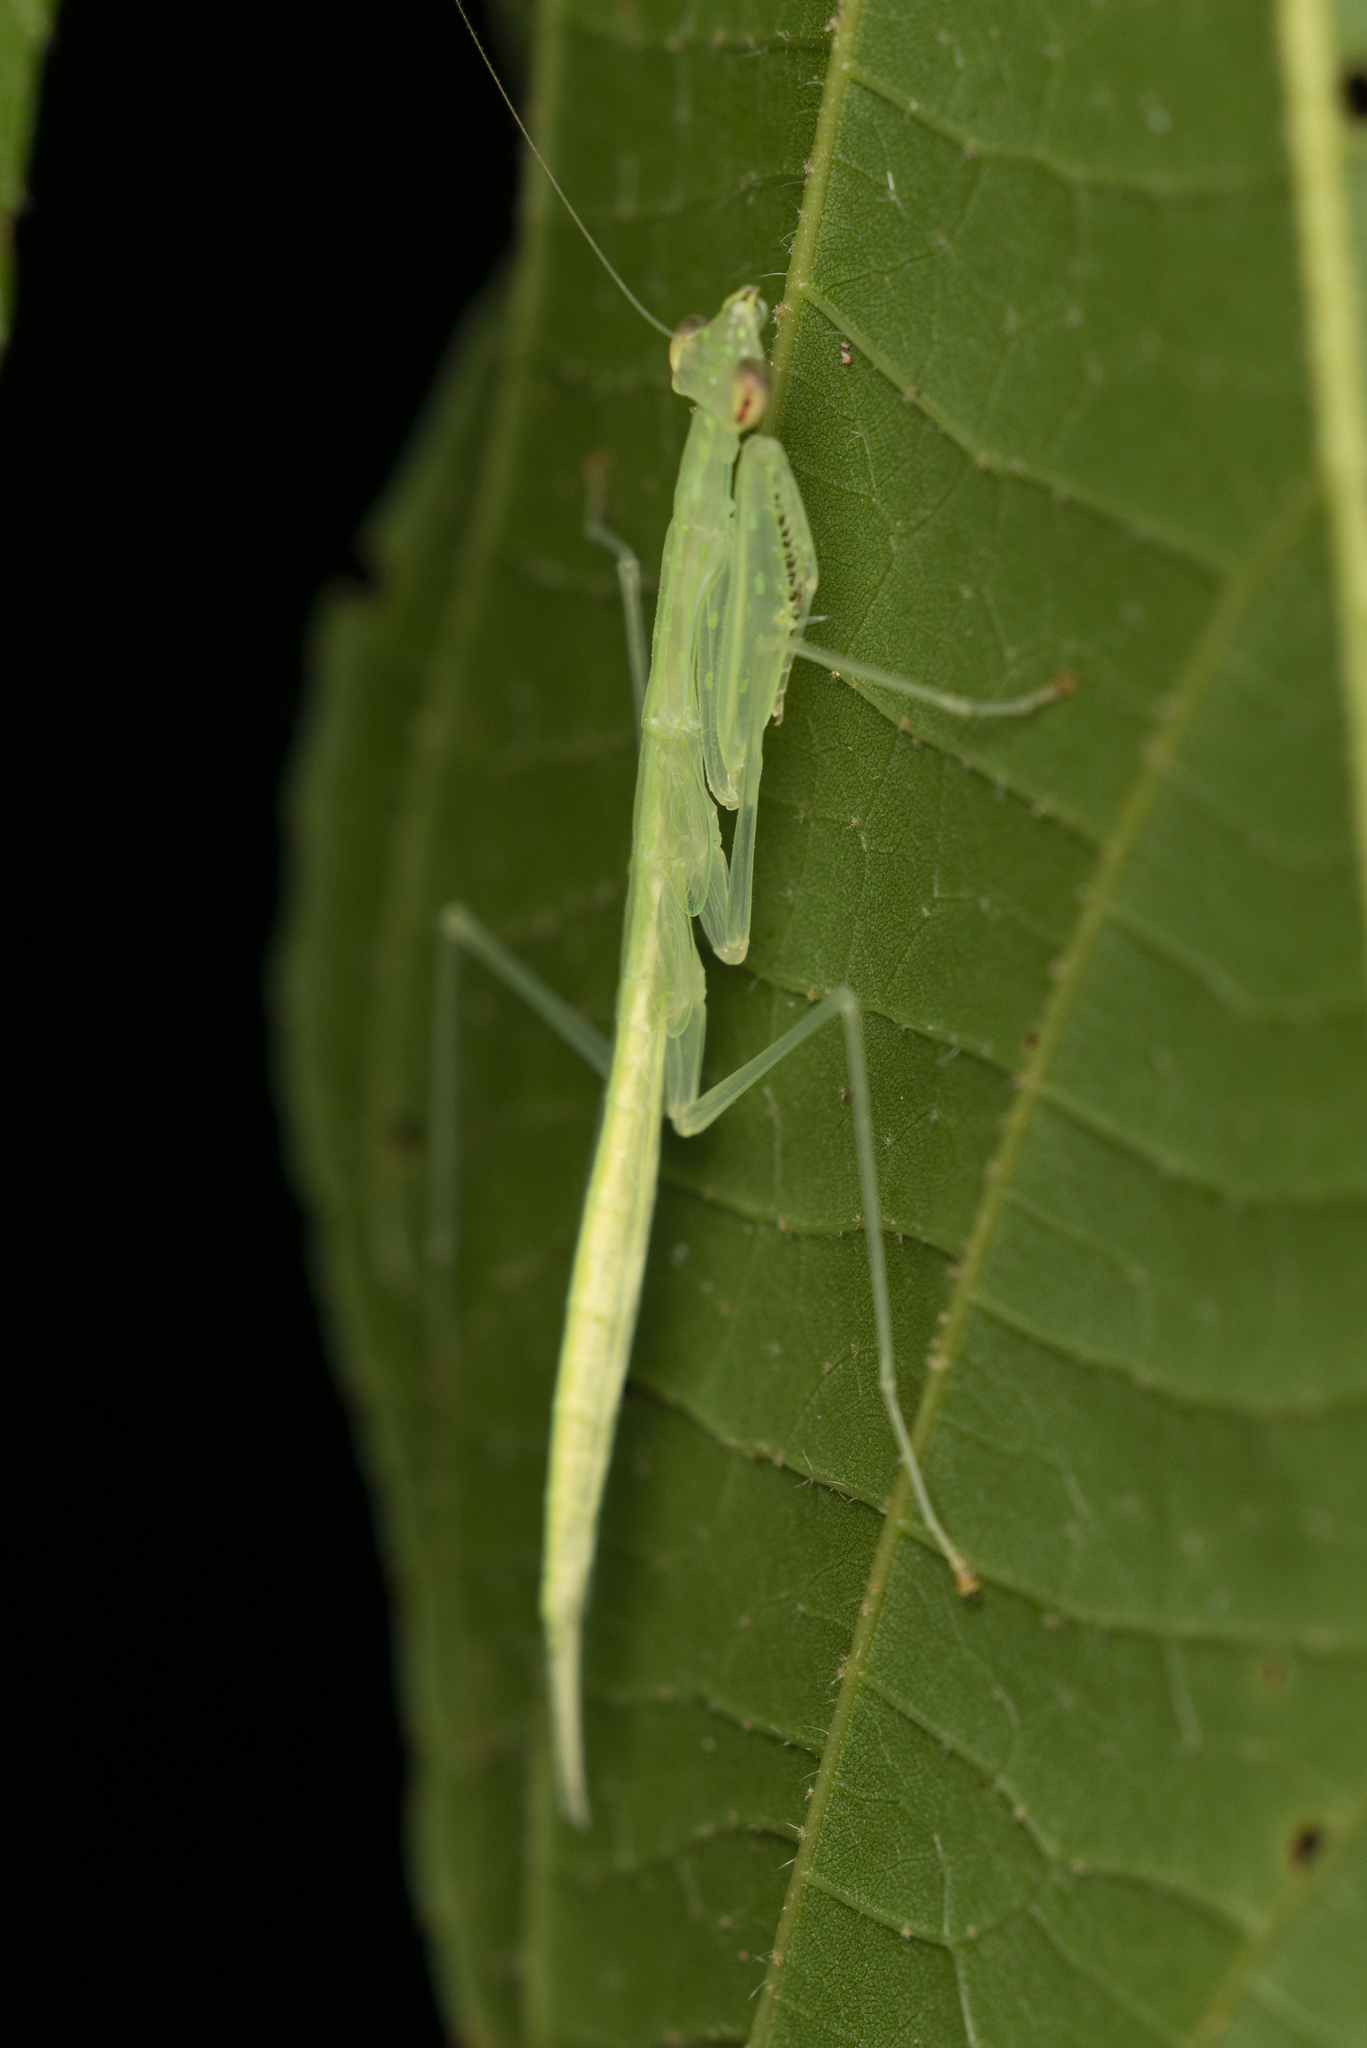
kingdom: Animalia
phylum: Arthropoda
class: Insecta
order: Mantodea
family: Nanomantidae
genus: Sinomantis
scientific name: Sinomantis denticulata
